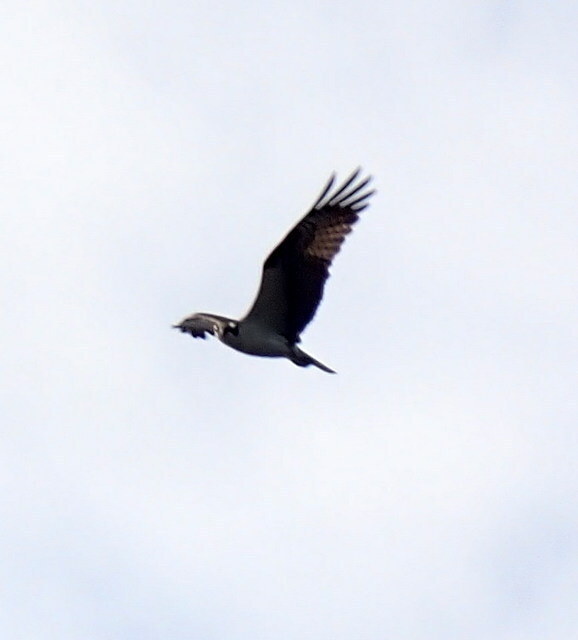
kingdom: Animalia
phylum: Chordata
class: Aves
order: Accipitriformes
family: Pandionidae
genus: Pandion
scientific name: Pandion haliaetus
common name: Osprey
